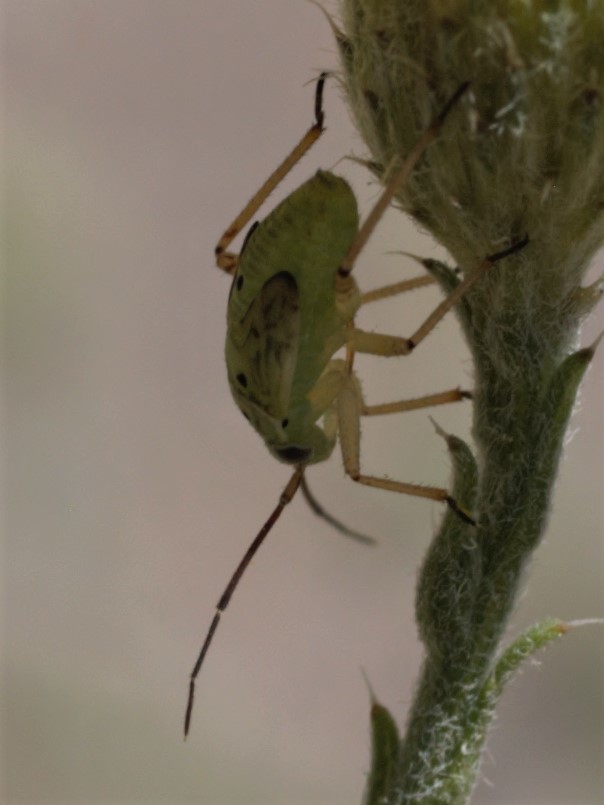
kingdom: Animalia
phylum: Arthropoda
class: Insecta
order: Hemiptera
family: Miridae
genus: Lygus
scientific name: Lygus
